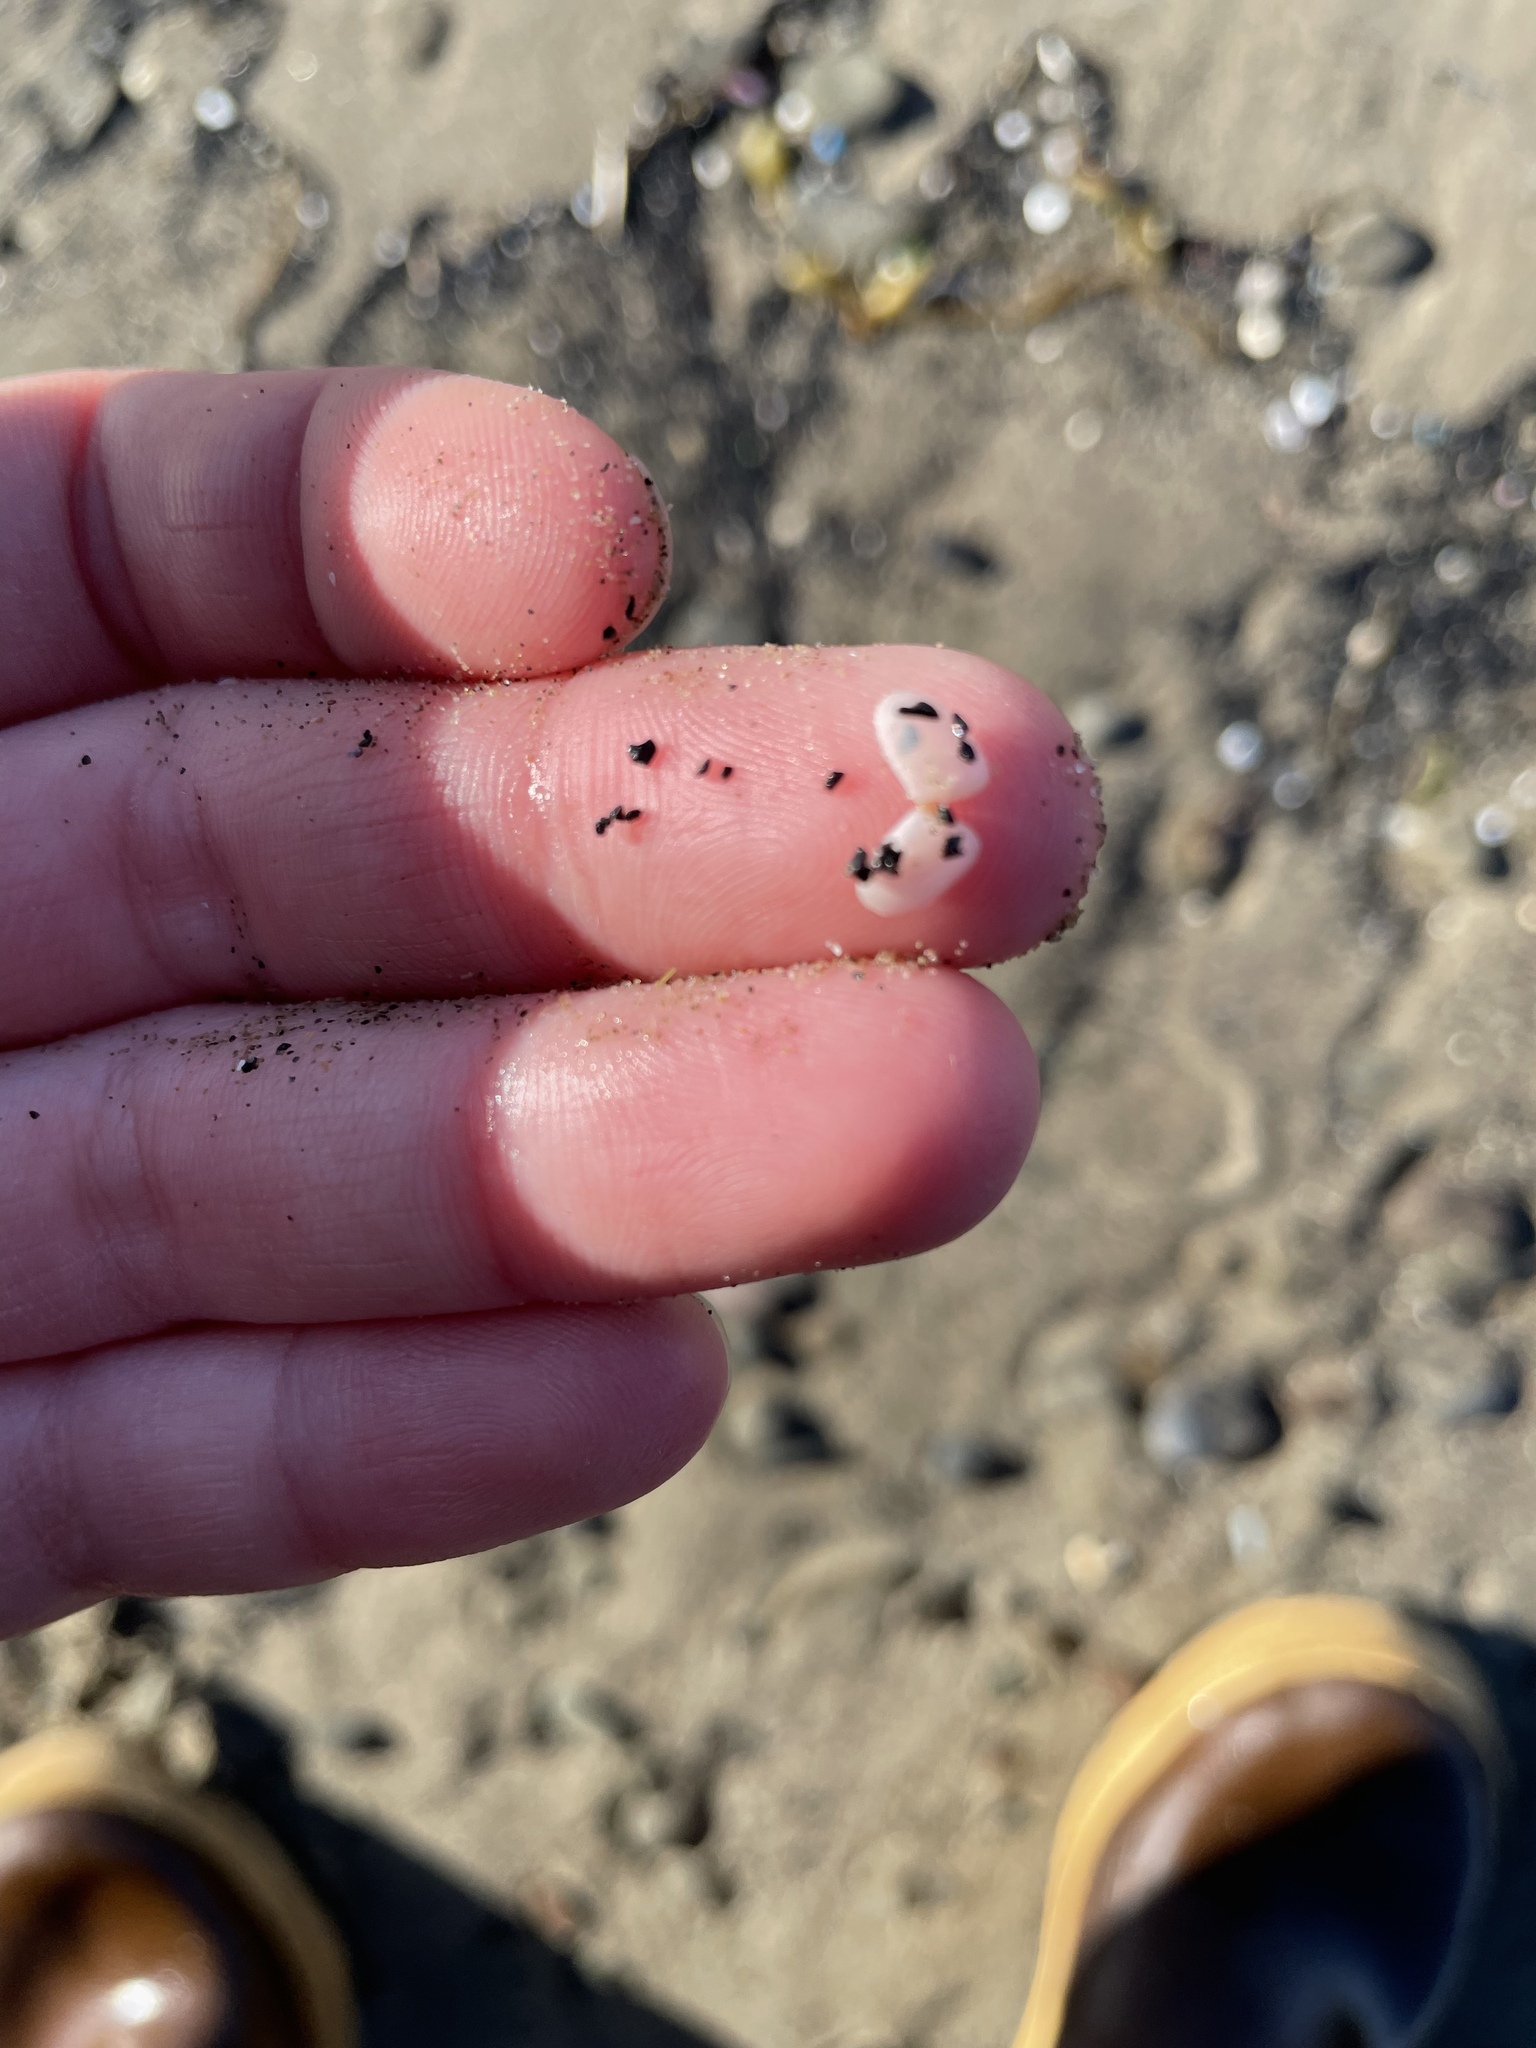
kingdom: Animalia
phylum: Mollusca
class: Bivalvia
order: Cardiida
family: Tellinidae
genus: Ameritella
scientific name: Ameritella agilis
